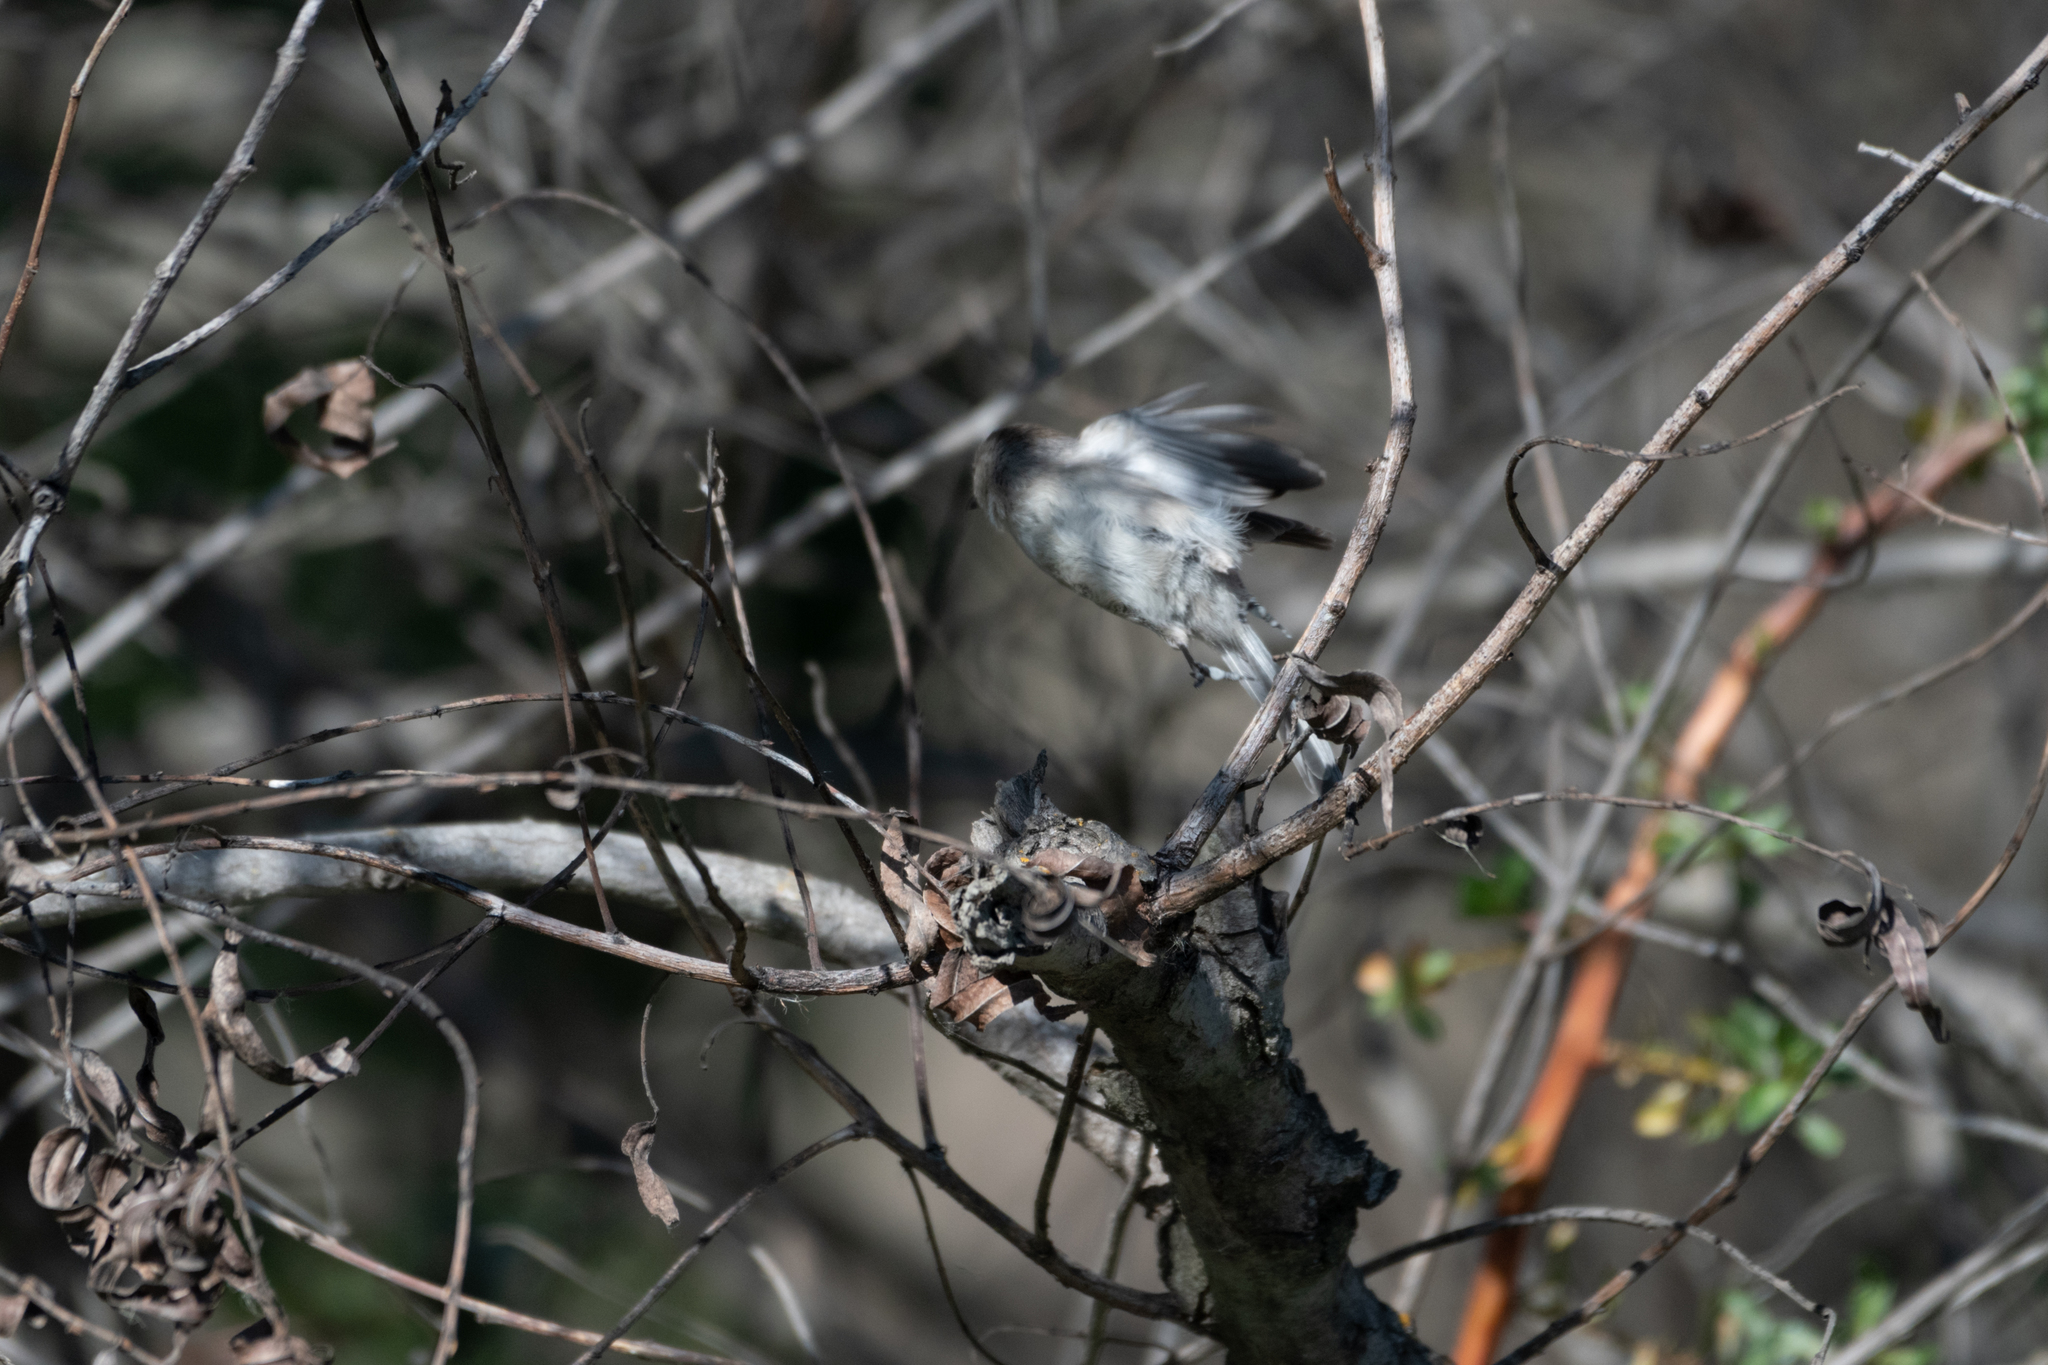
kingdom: Animalia
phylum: Chordata
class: Aves
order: Passeriformes
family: Aegithalidae
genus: Psaltriparus
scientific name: Psaltriparus minimus
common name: American bushtit
